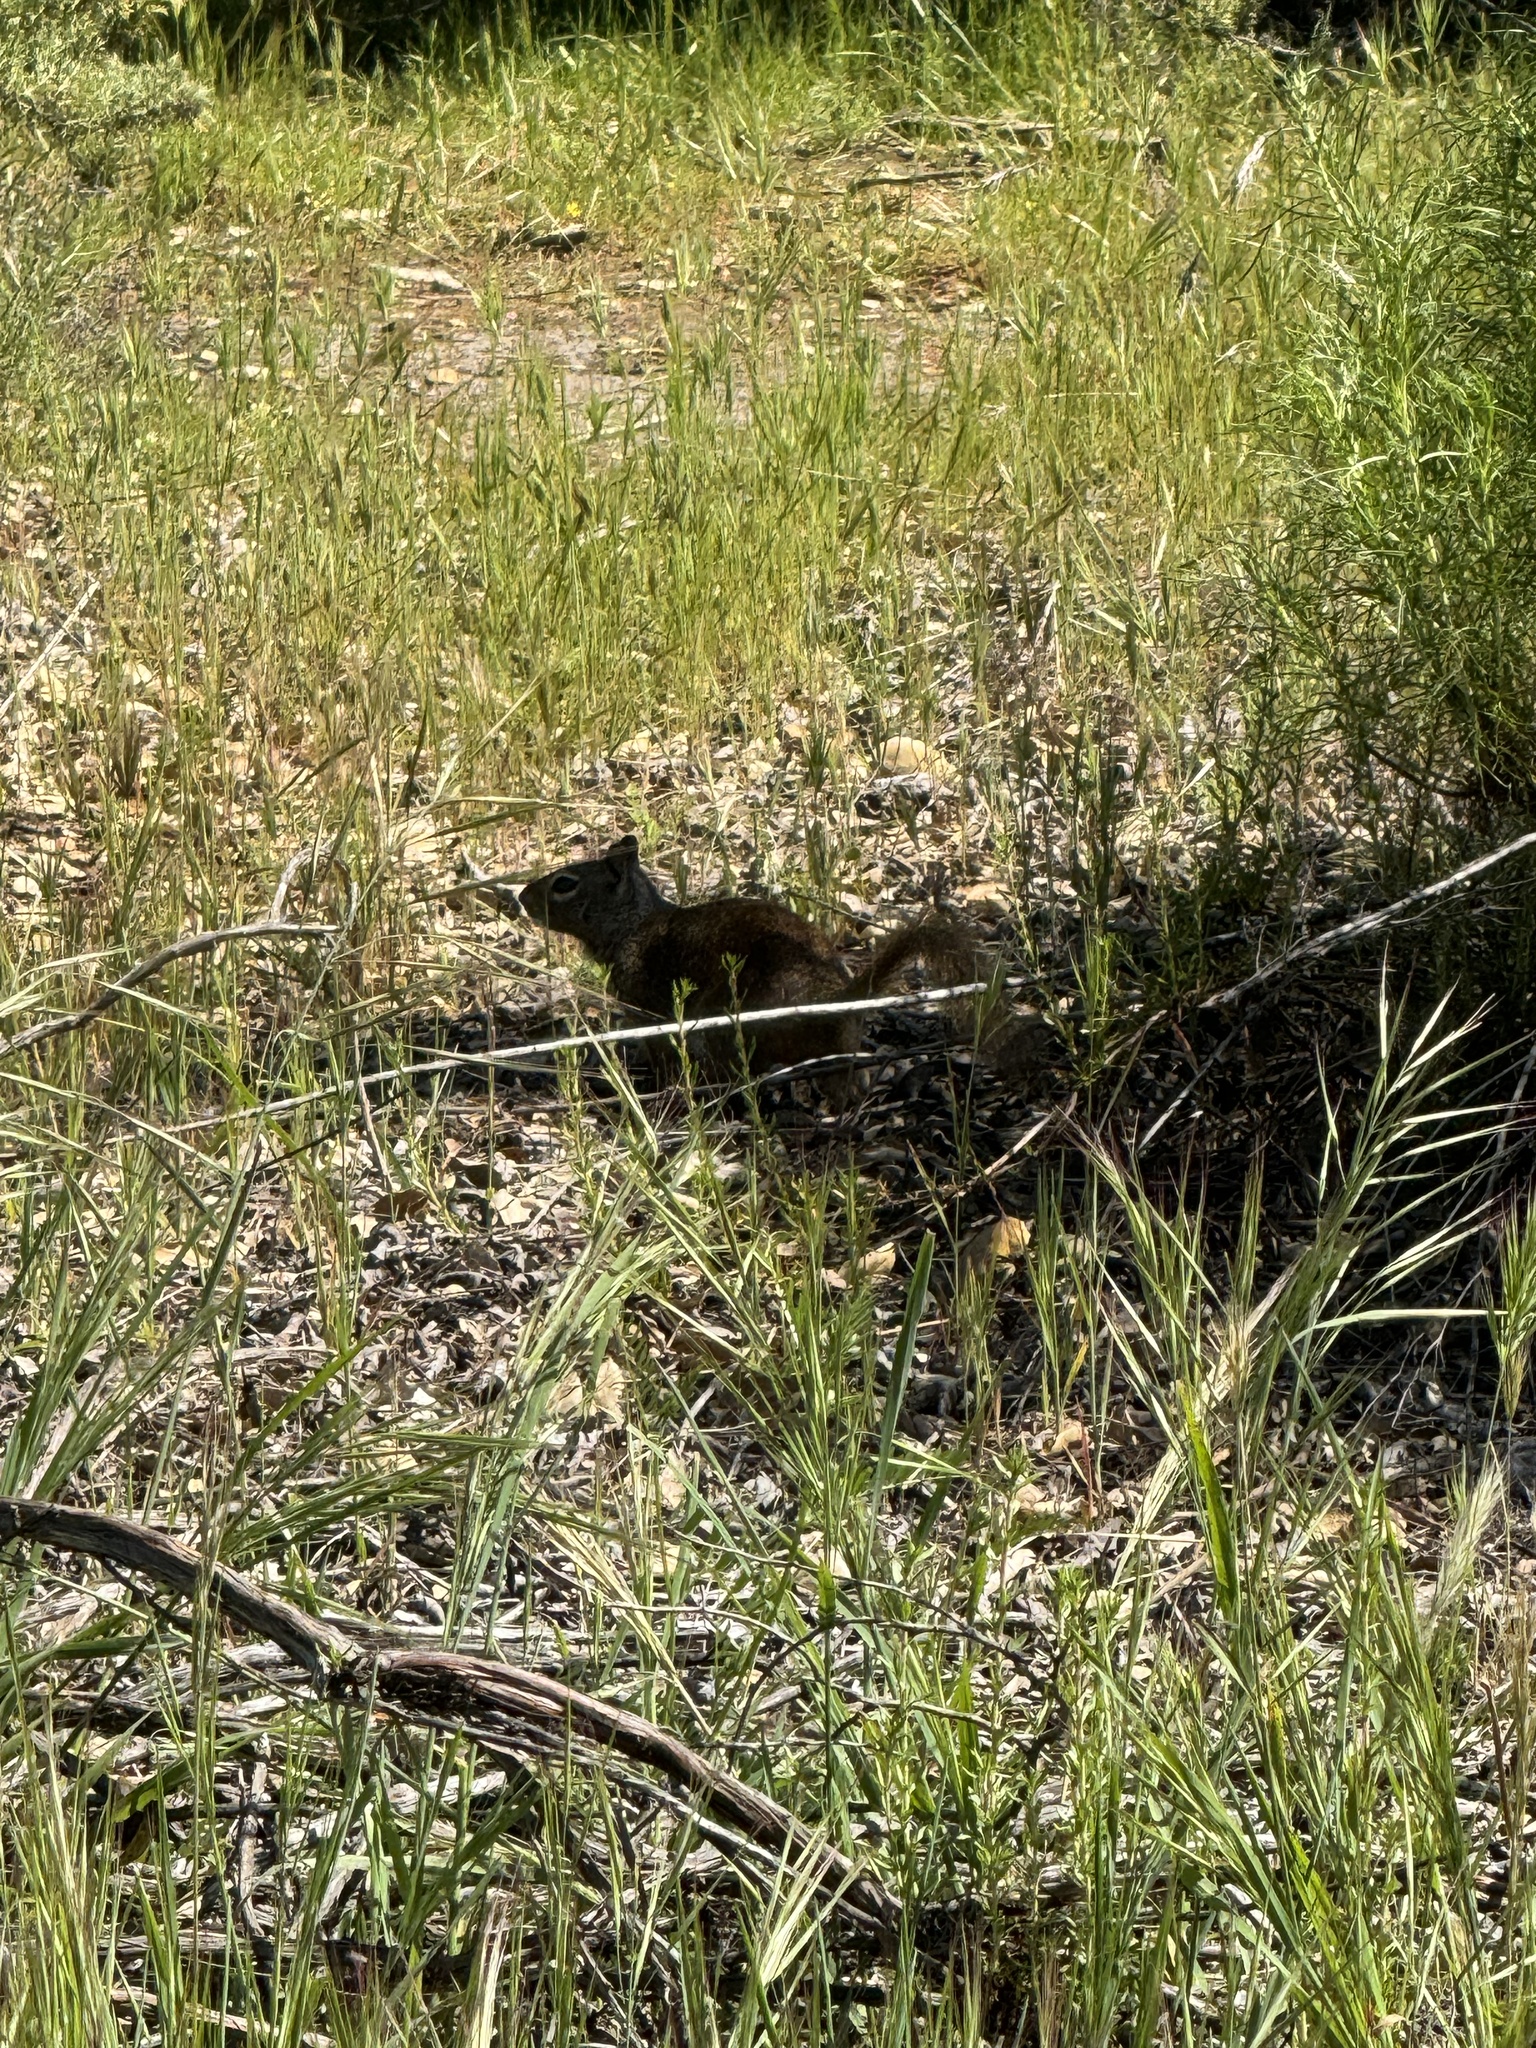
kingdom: Animalia
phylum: Chordata
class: Mammalia
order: Rodentia
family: Sciuridae
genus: Otospermophilus
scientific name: Otospermophilus beecheyi
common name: California ground squirrel
